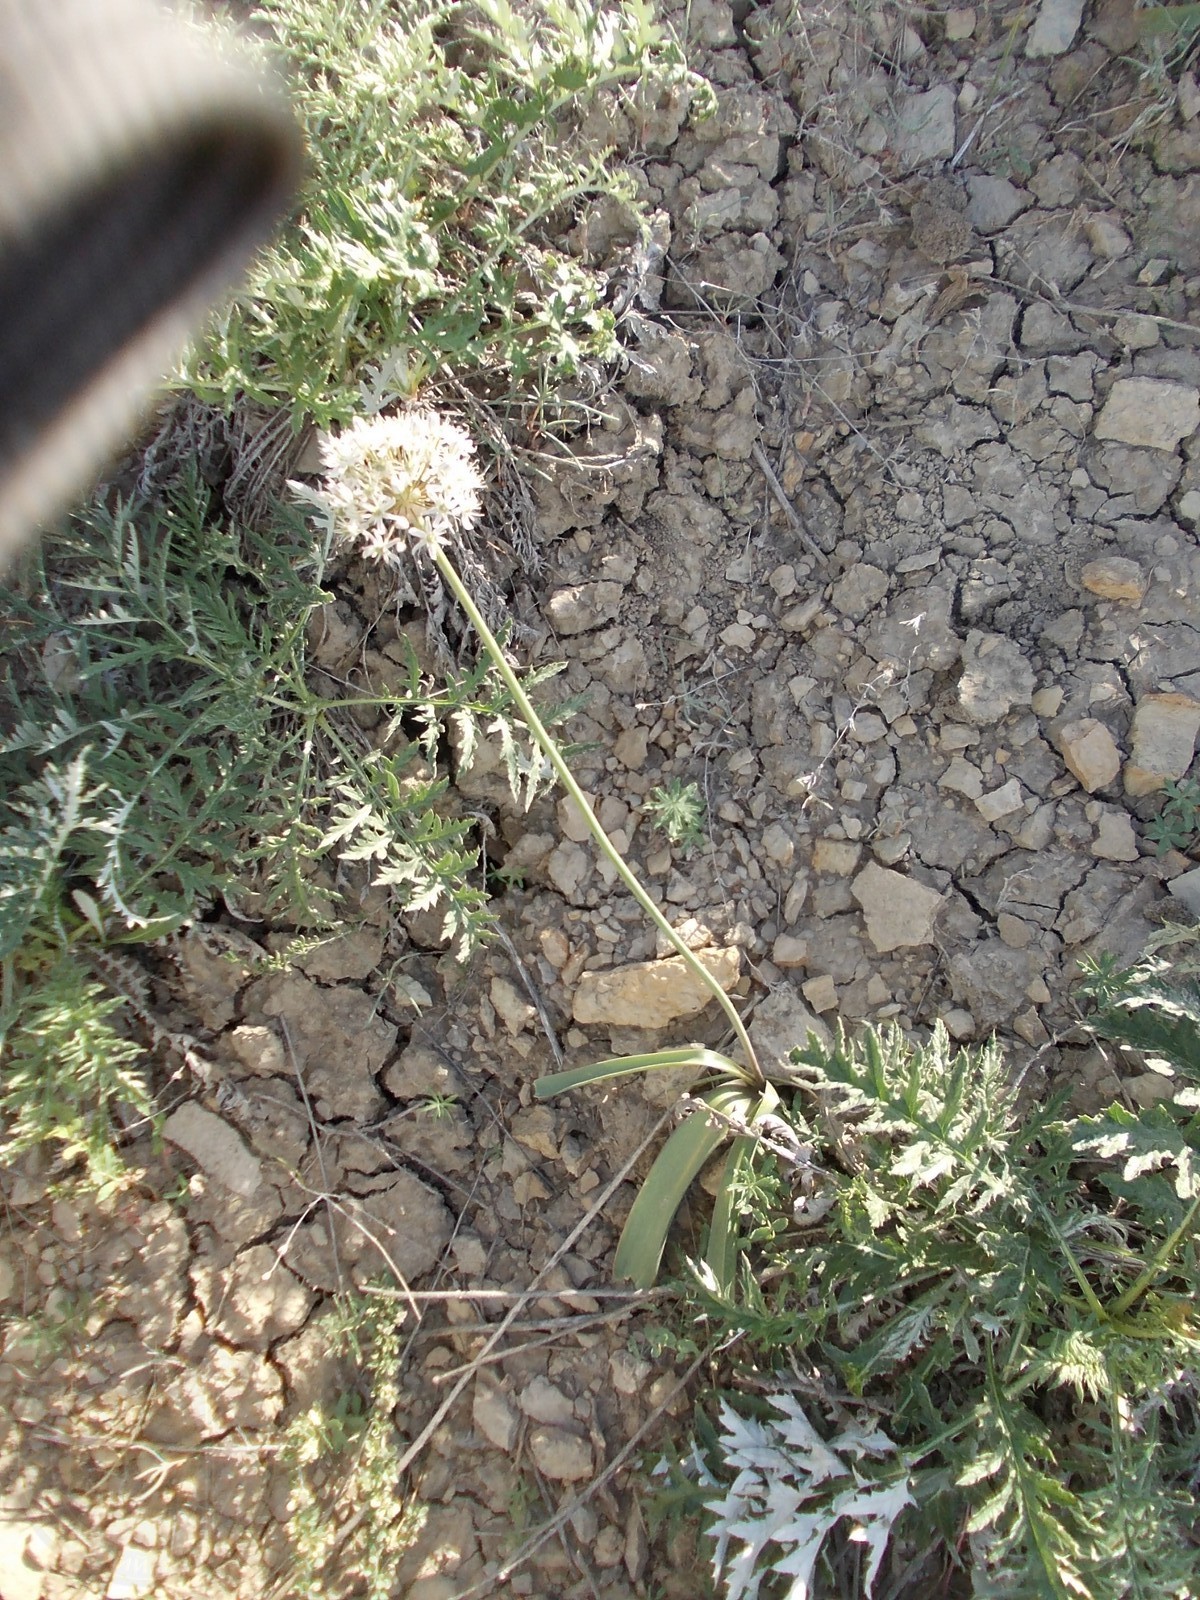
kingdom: Plantae
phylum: Tracheophyta
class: Liliopsida
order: Asparagales
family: Amaryllidaceae
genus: Allium
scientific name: Allium tulipifolium
